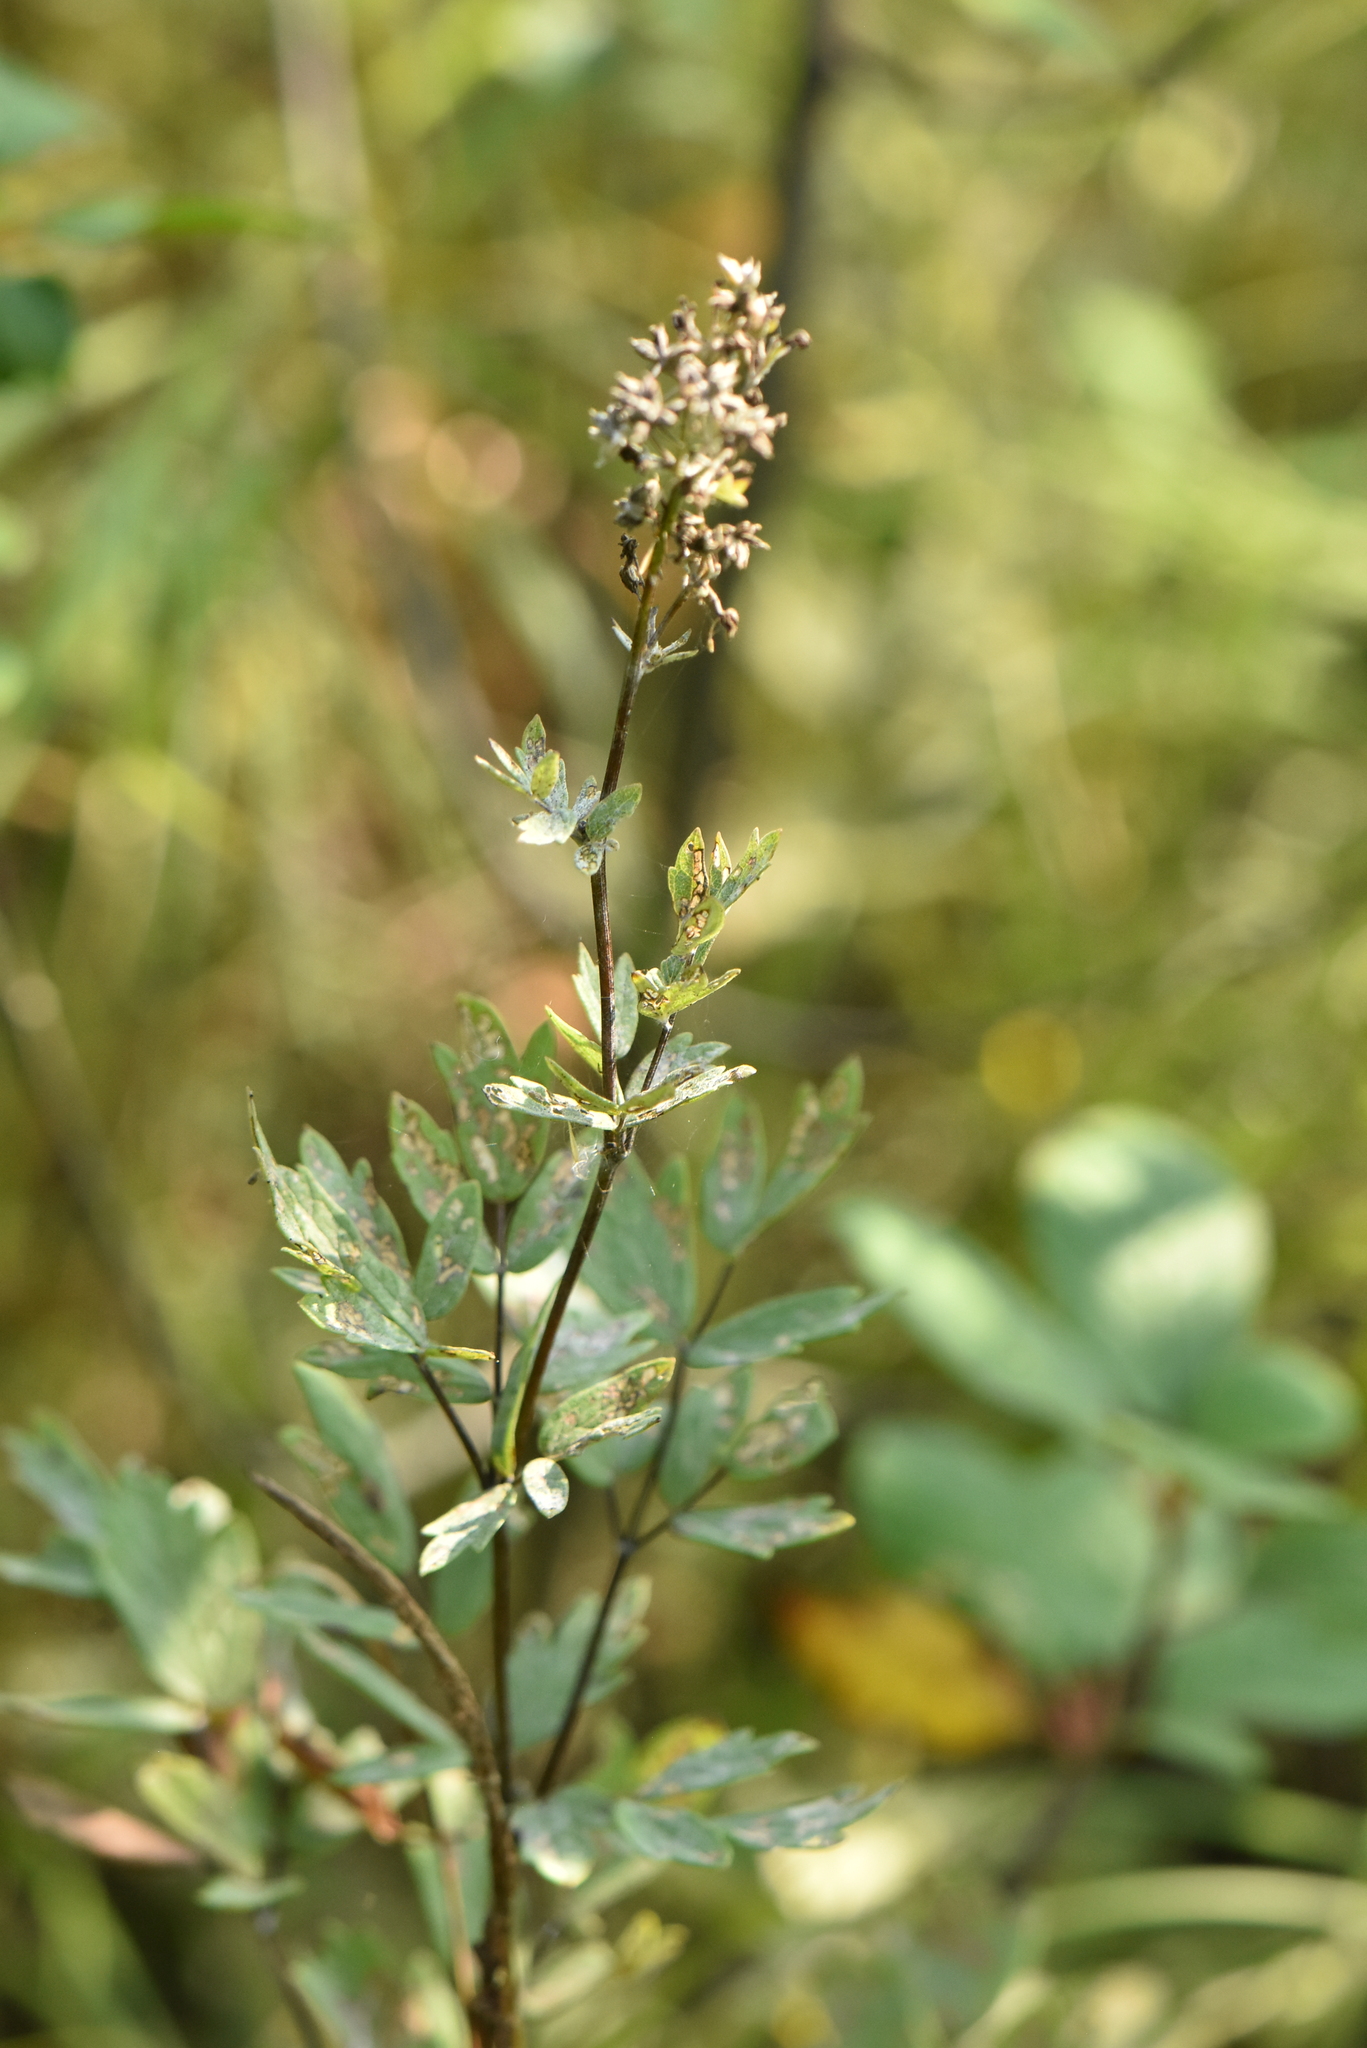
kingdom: Plantae
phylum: Tracheophyta
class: Magnoliopsida
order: Ranunculales
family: Ranunculaceae
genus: Thalictrum
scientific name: Thalictrum simplex
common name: Small meadow-rue
